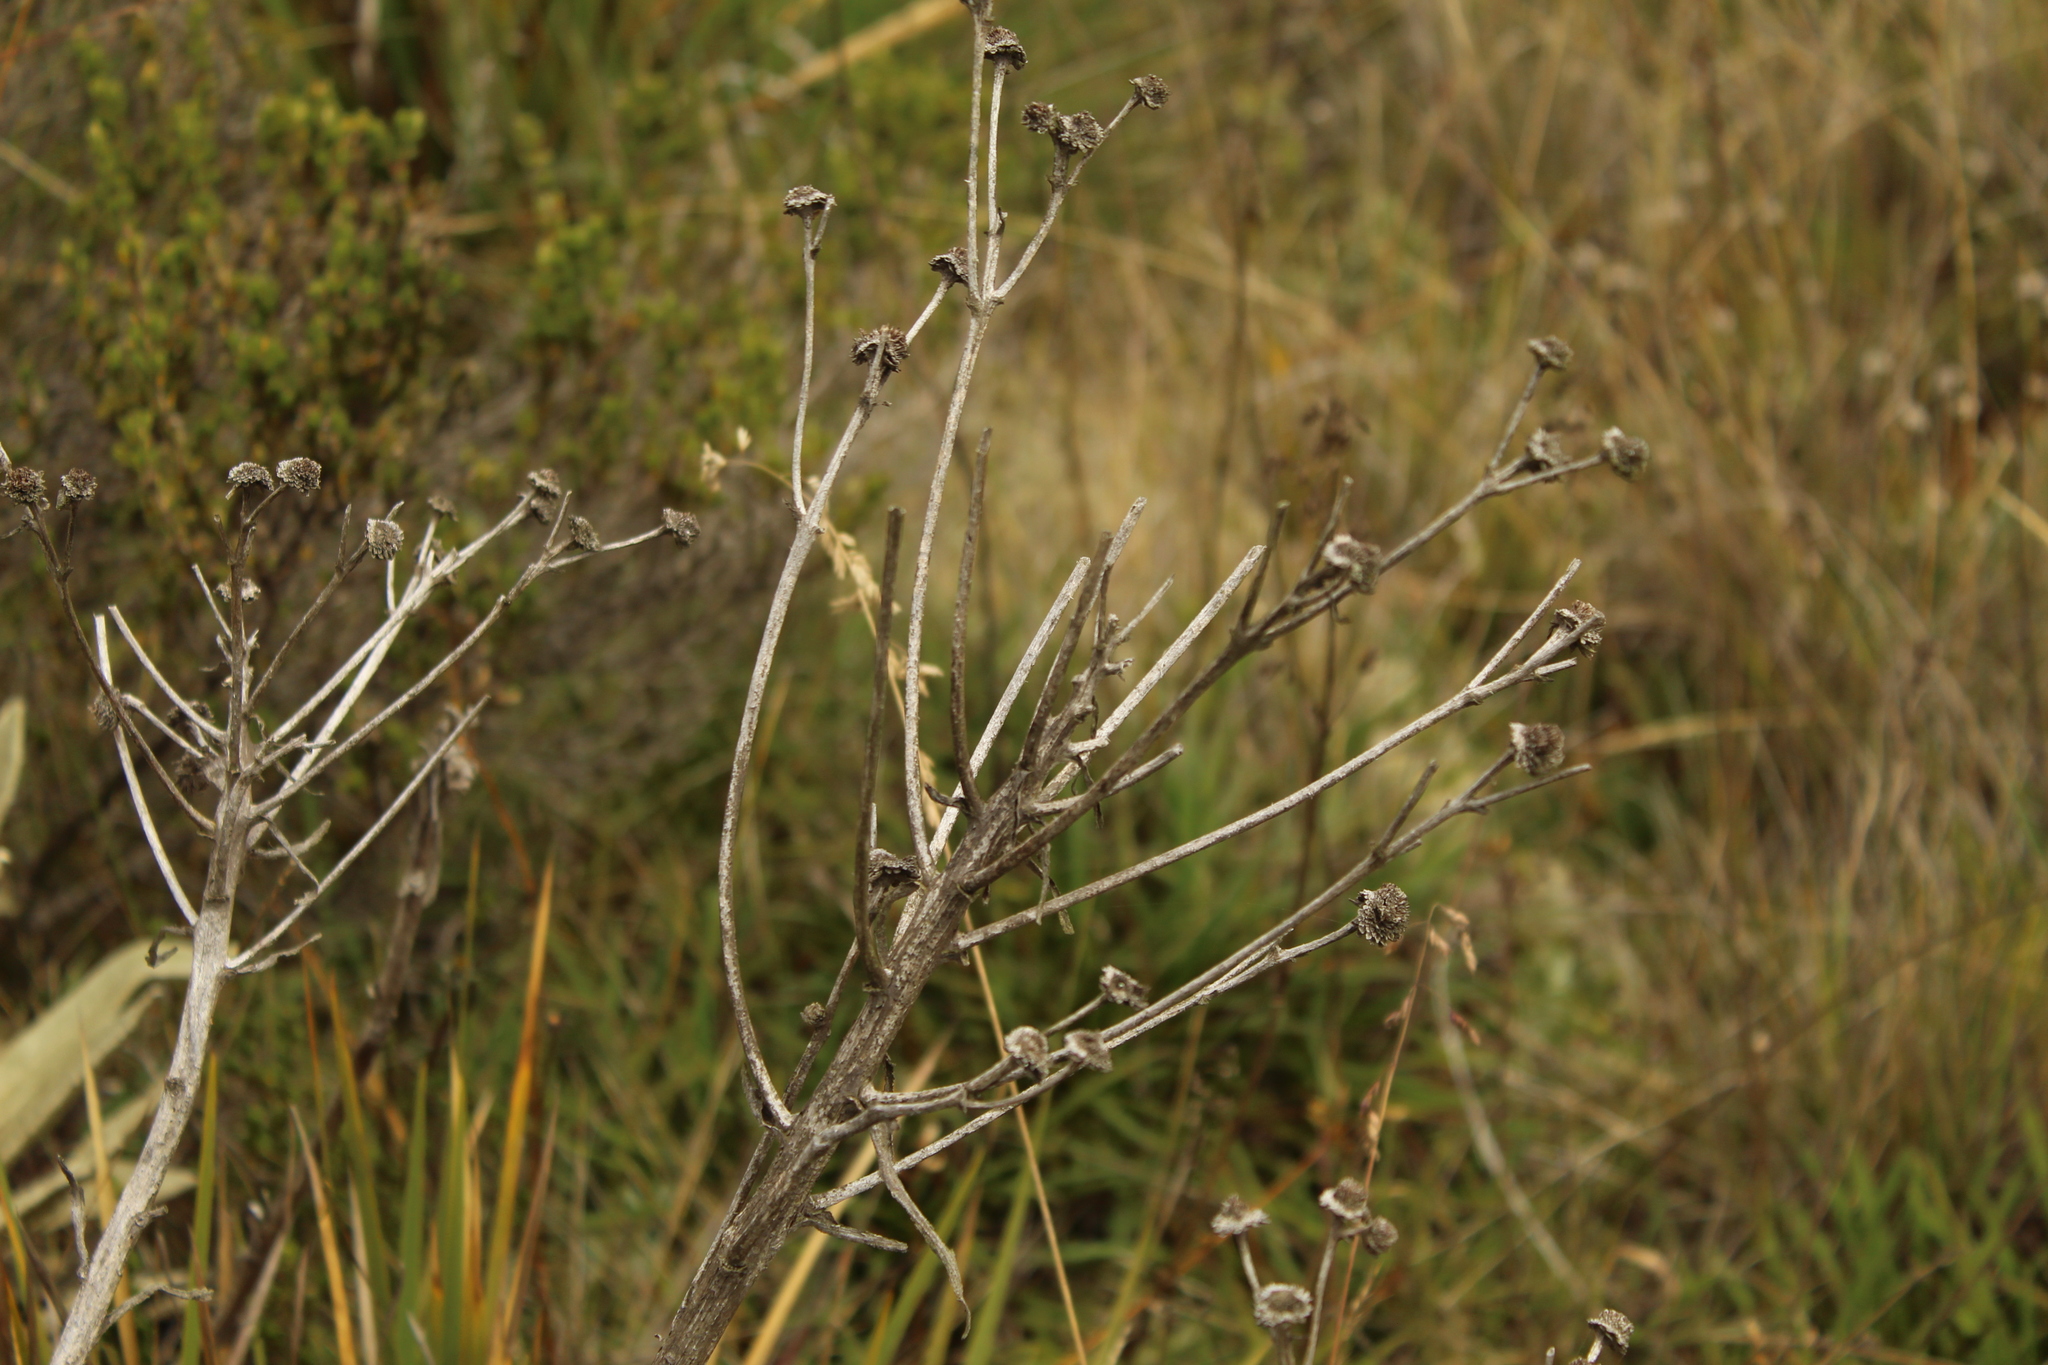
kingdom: Plantae
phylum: Tracheophyta
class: Magnoliopsida
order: Asterales
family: Asteraceae
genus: Espeletia
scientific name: Espeletia muiska
